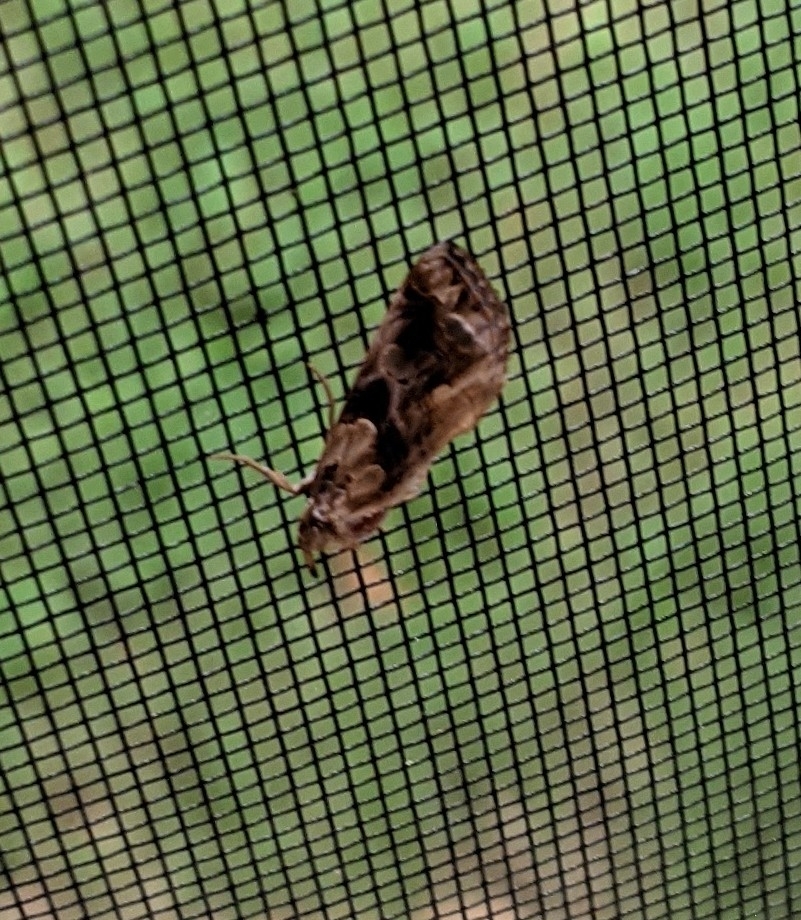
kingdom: Animalia
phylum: Arthropoda
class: Insecta
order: Lepidoptera
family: Erebidae
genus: Plusiodonta
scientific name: Plusiodonta compressipalpis
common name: Moonseed moth
